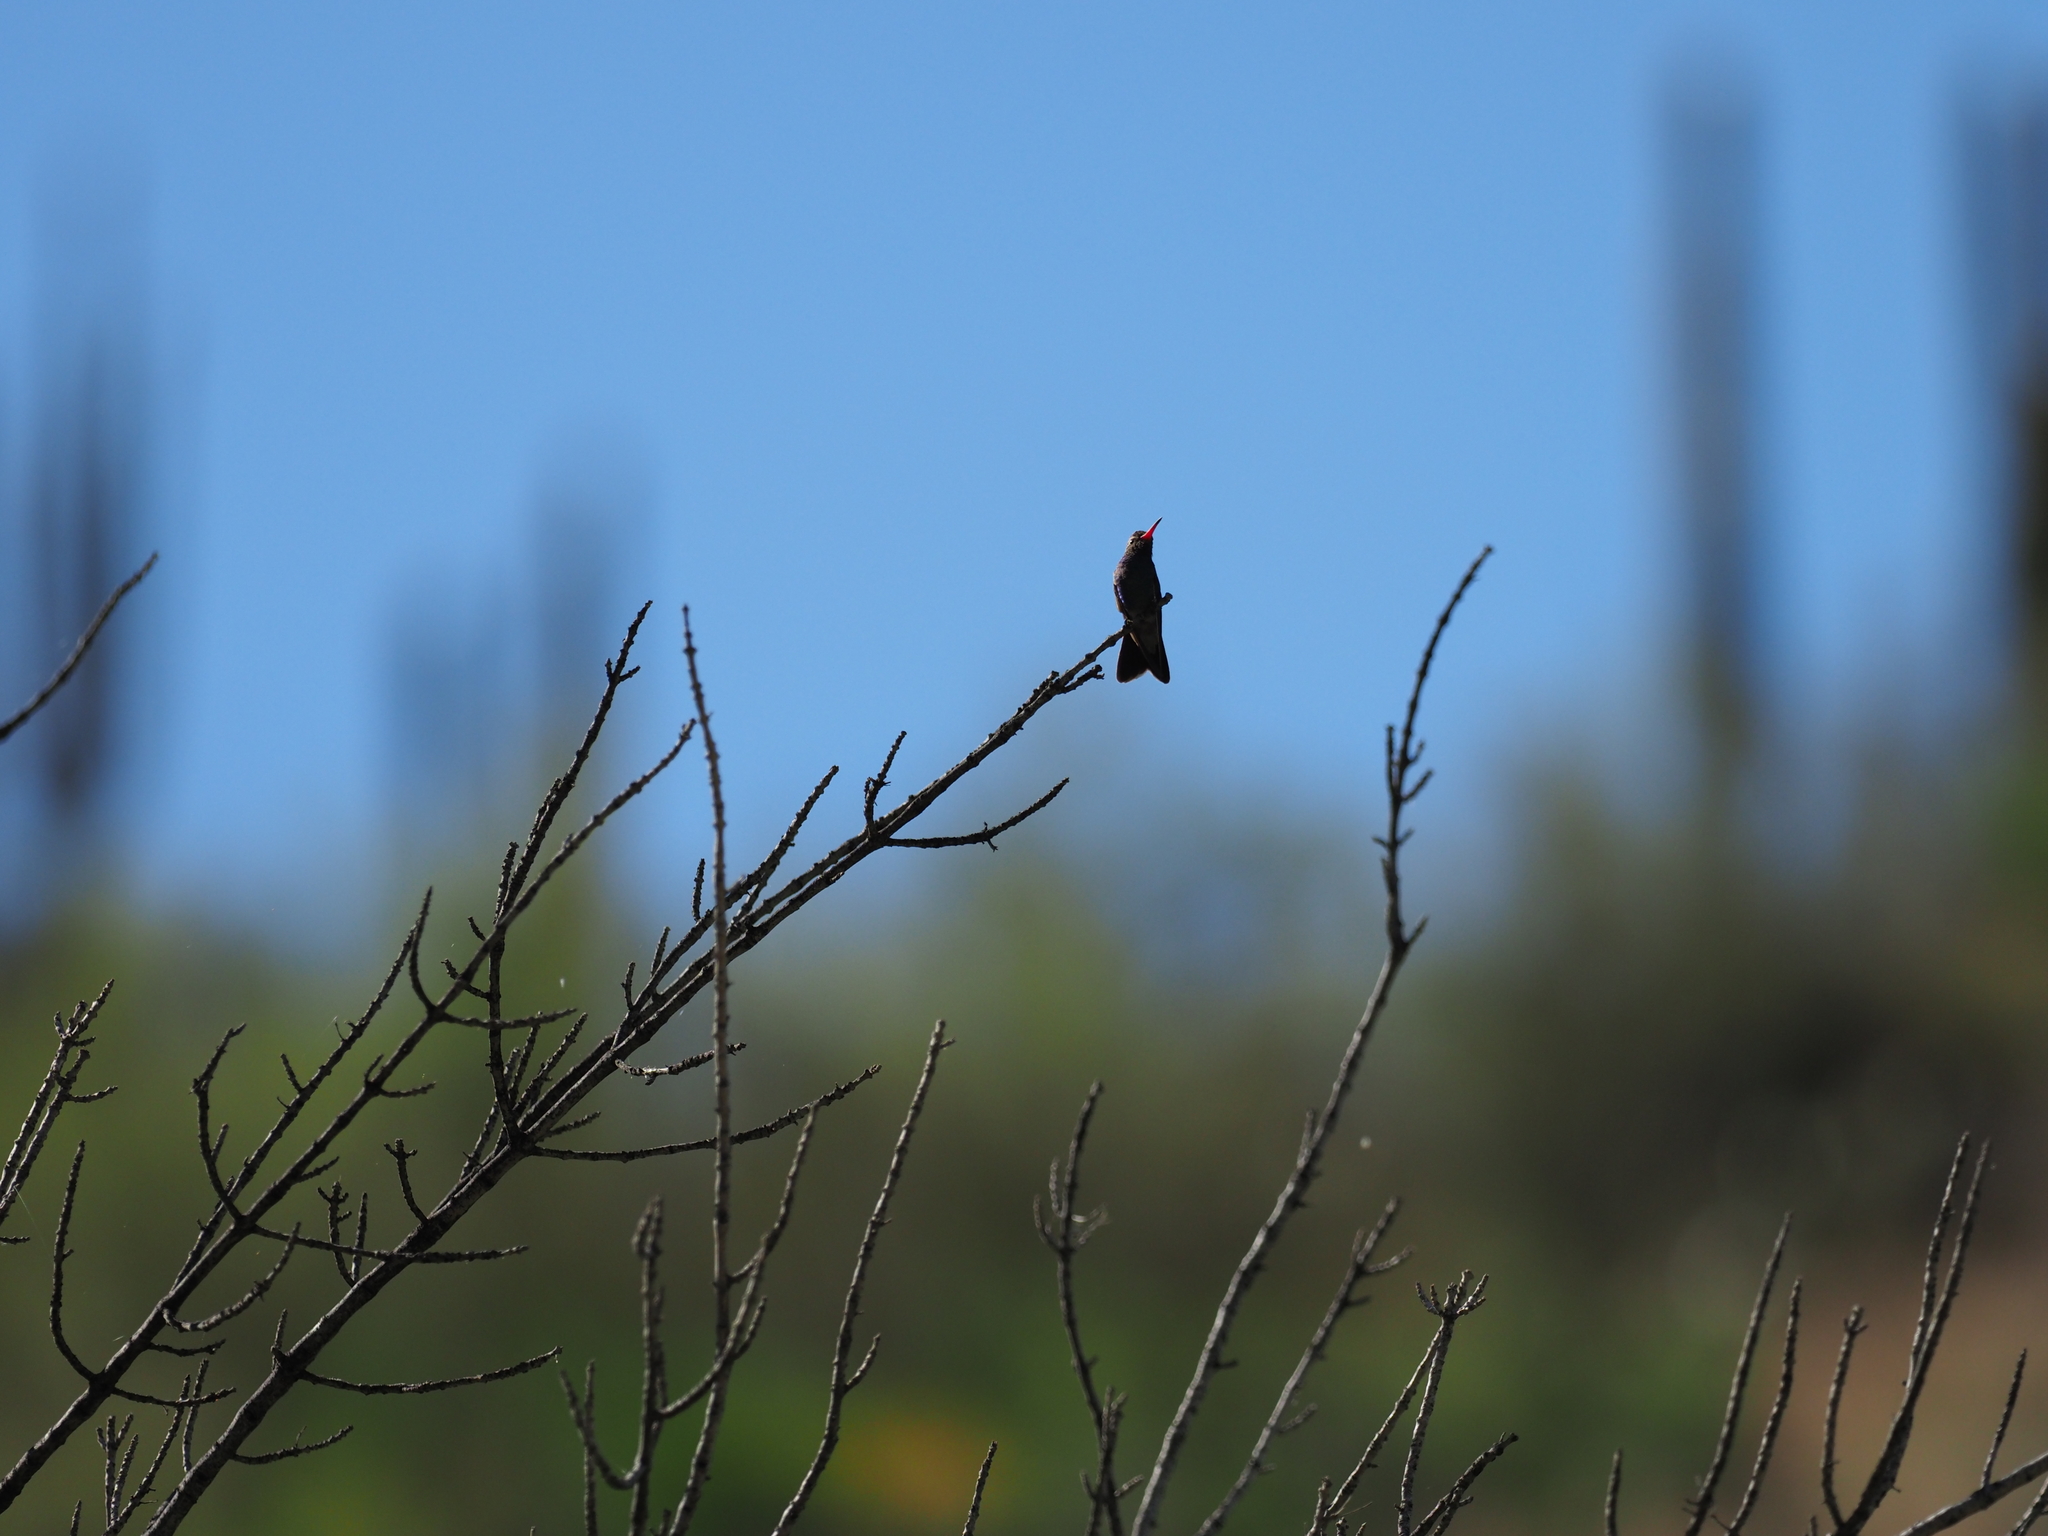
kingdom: Animalia
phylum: Chordata
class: Aves
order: Apodiformes
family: Trochilidae
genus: Cynanthus
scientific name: Cynanthus latirostris
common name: Broad-billed hummingbird
